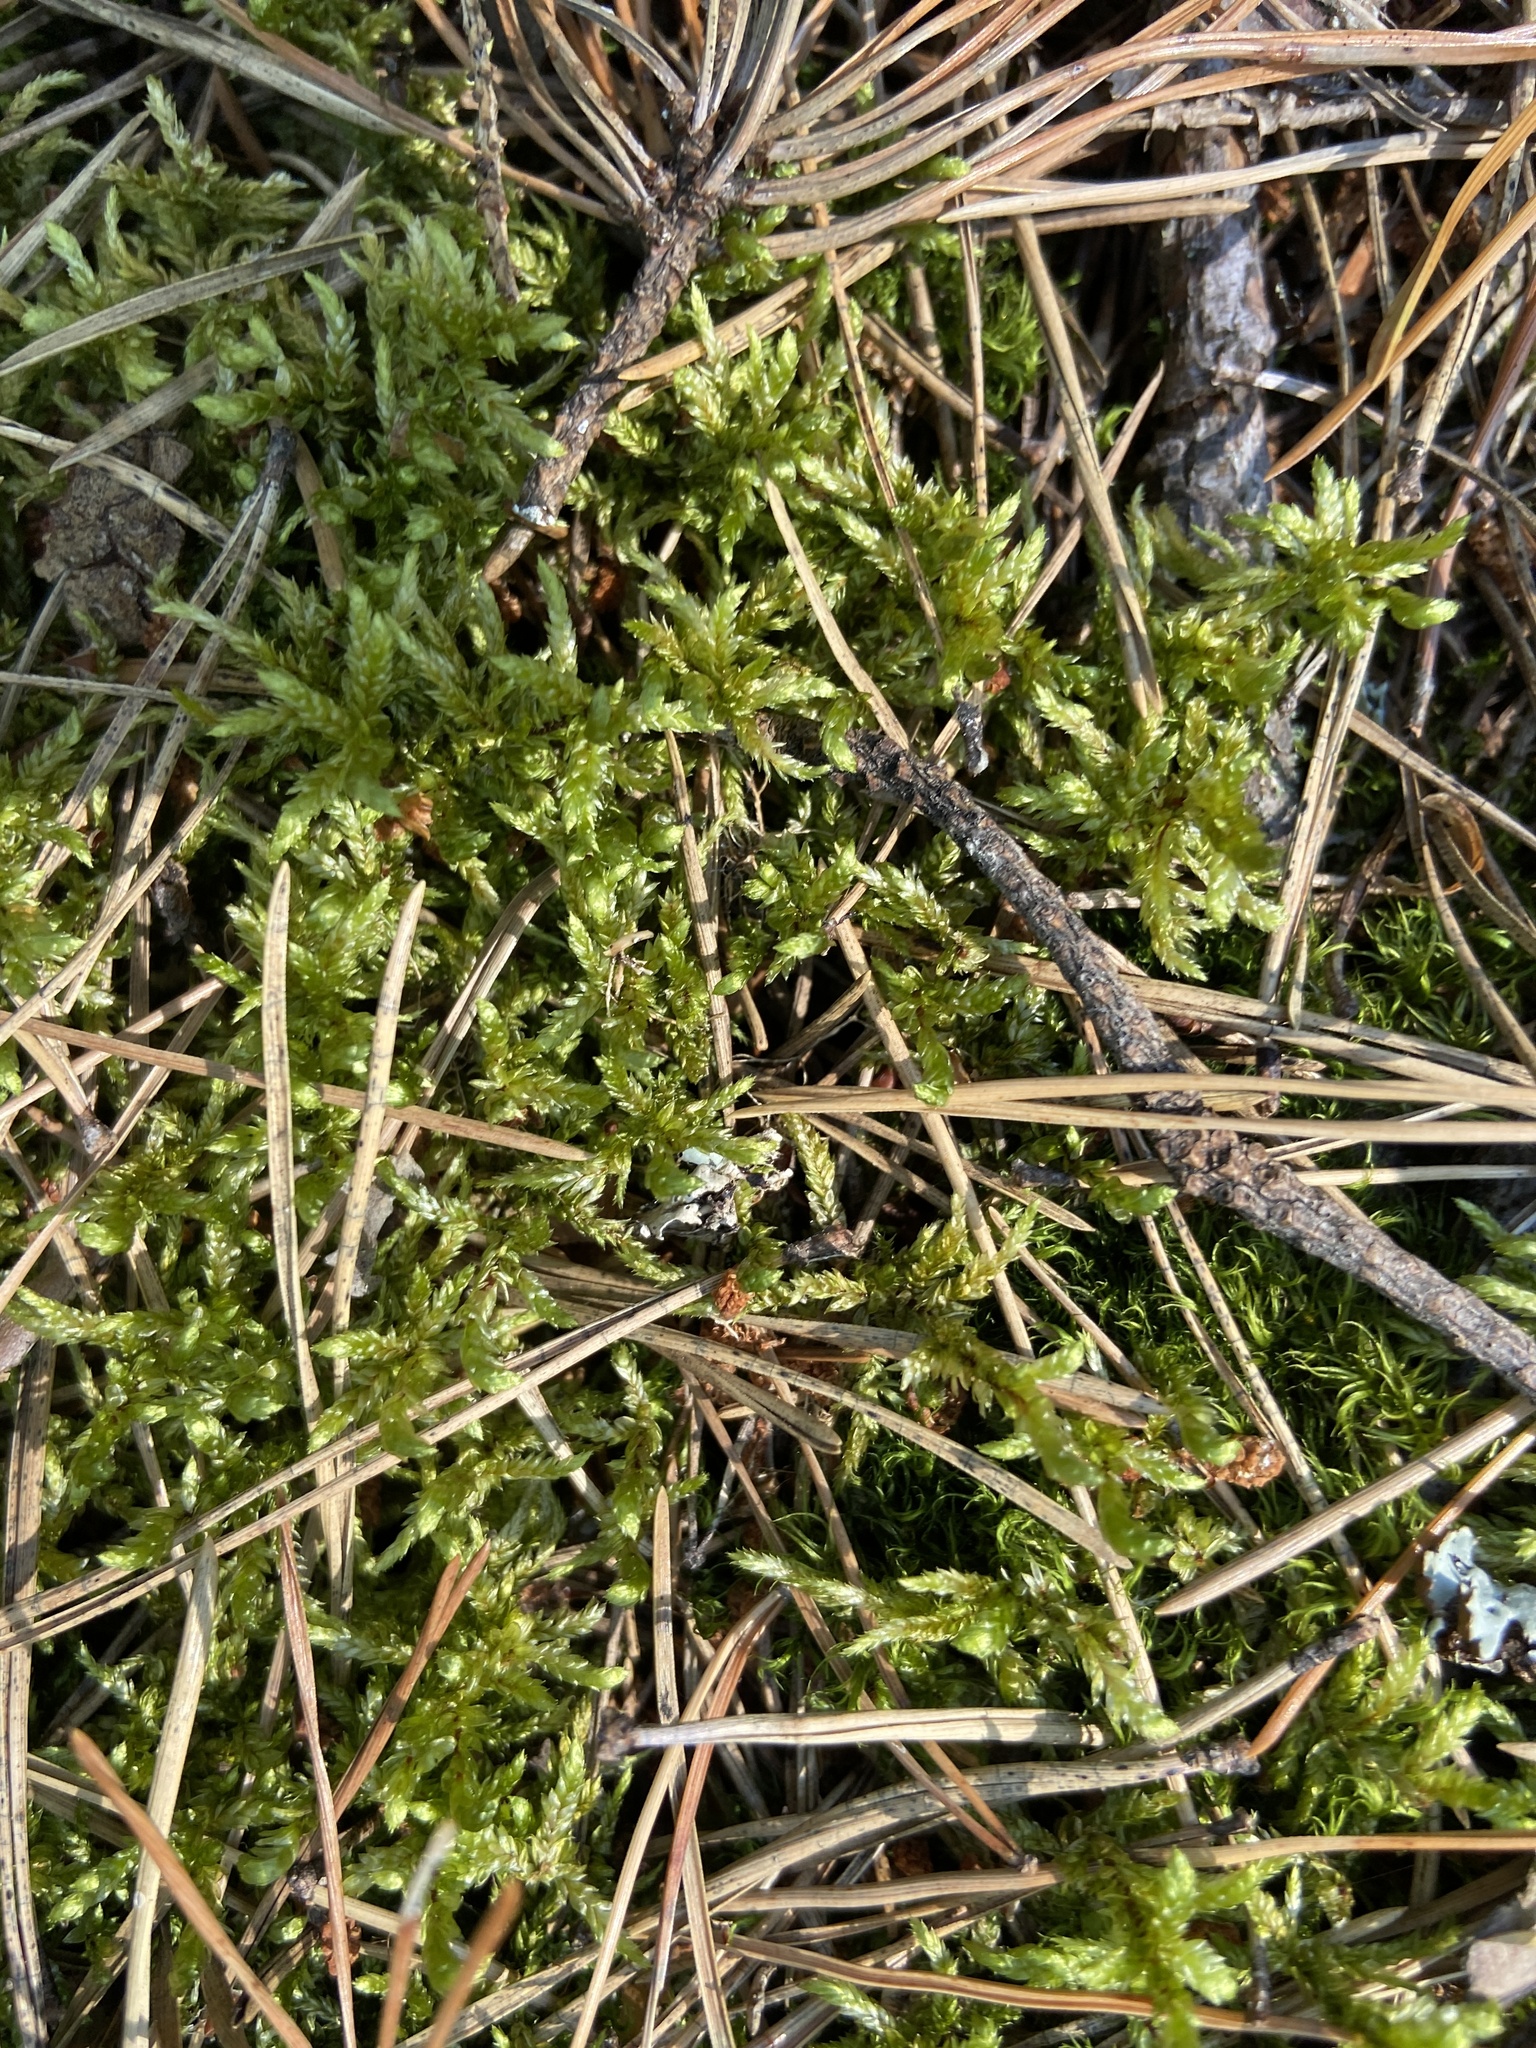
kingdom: Plantae
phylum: Bryophyta
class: Bryopsida
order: Hypnales
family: Hylocomiaceae
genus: Pleurozium
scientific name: Pleurozium schreberi
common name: Red-stemmed feather moss
